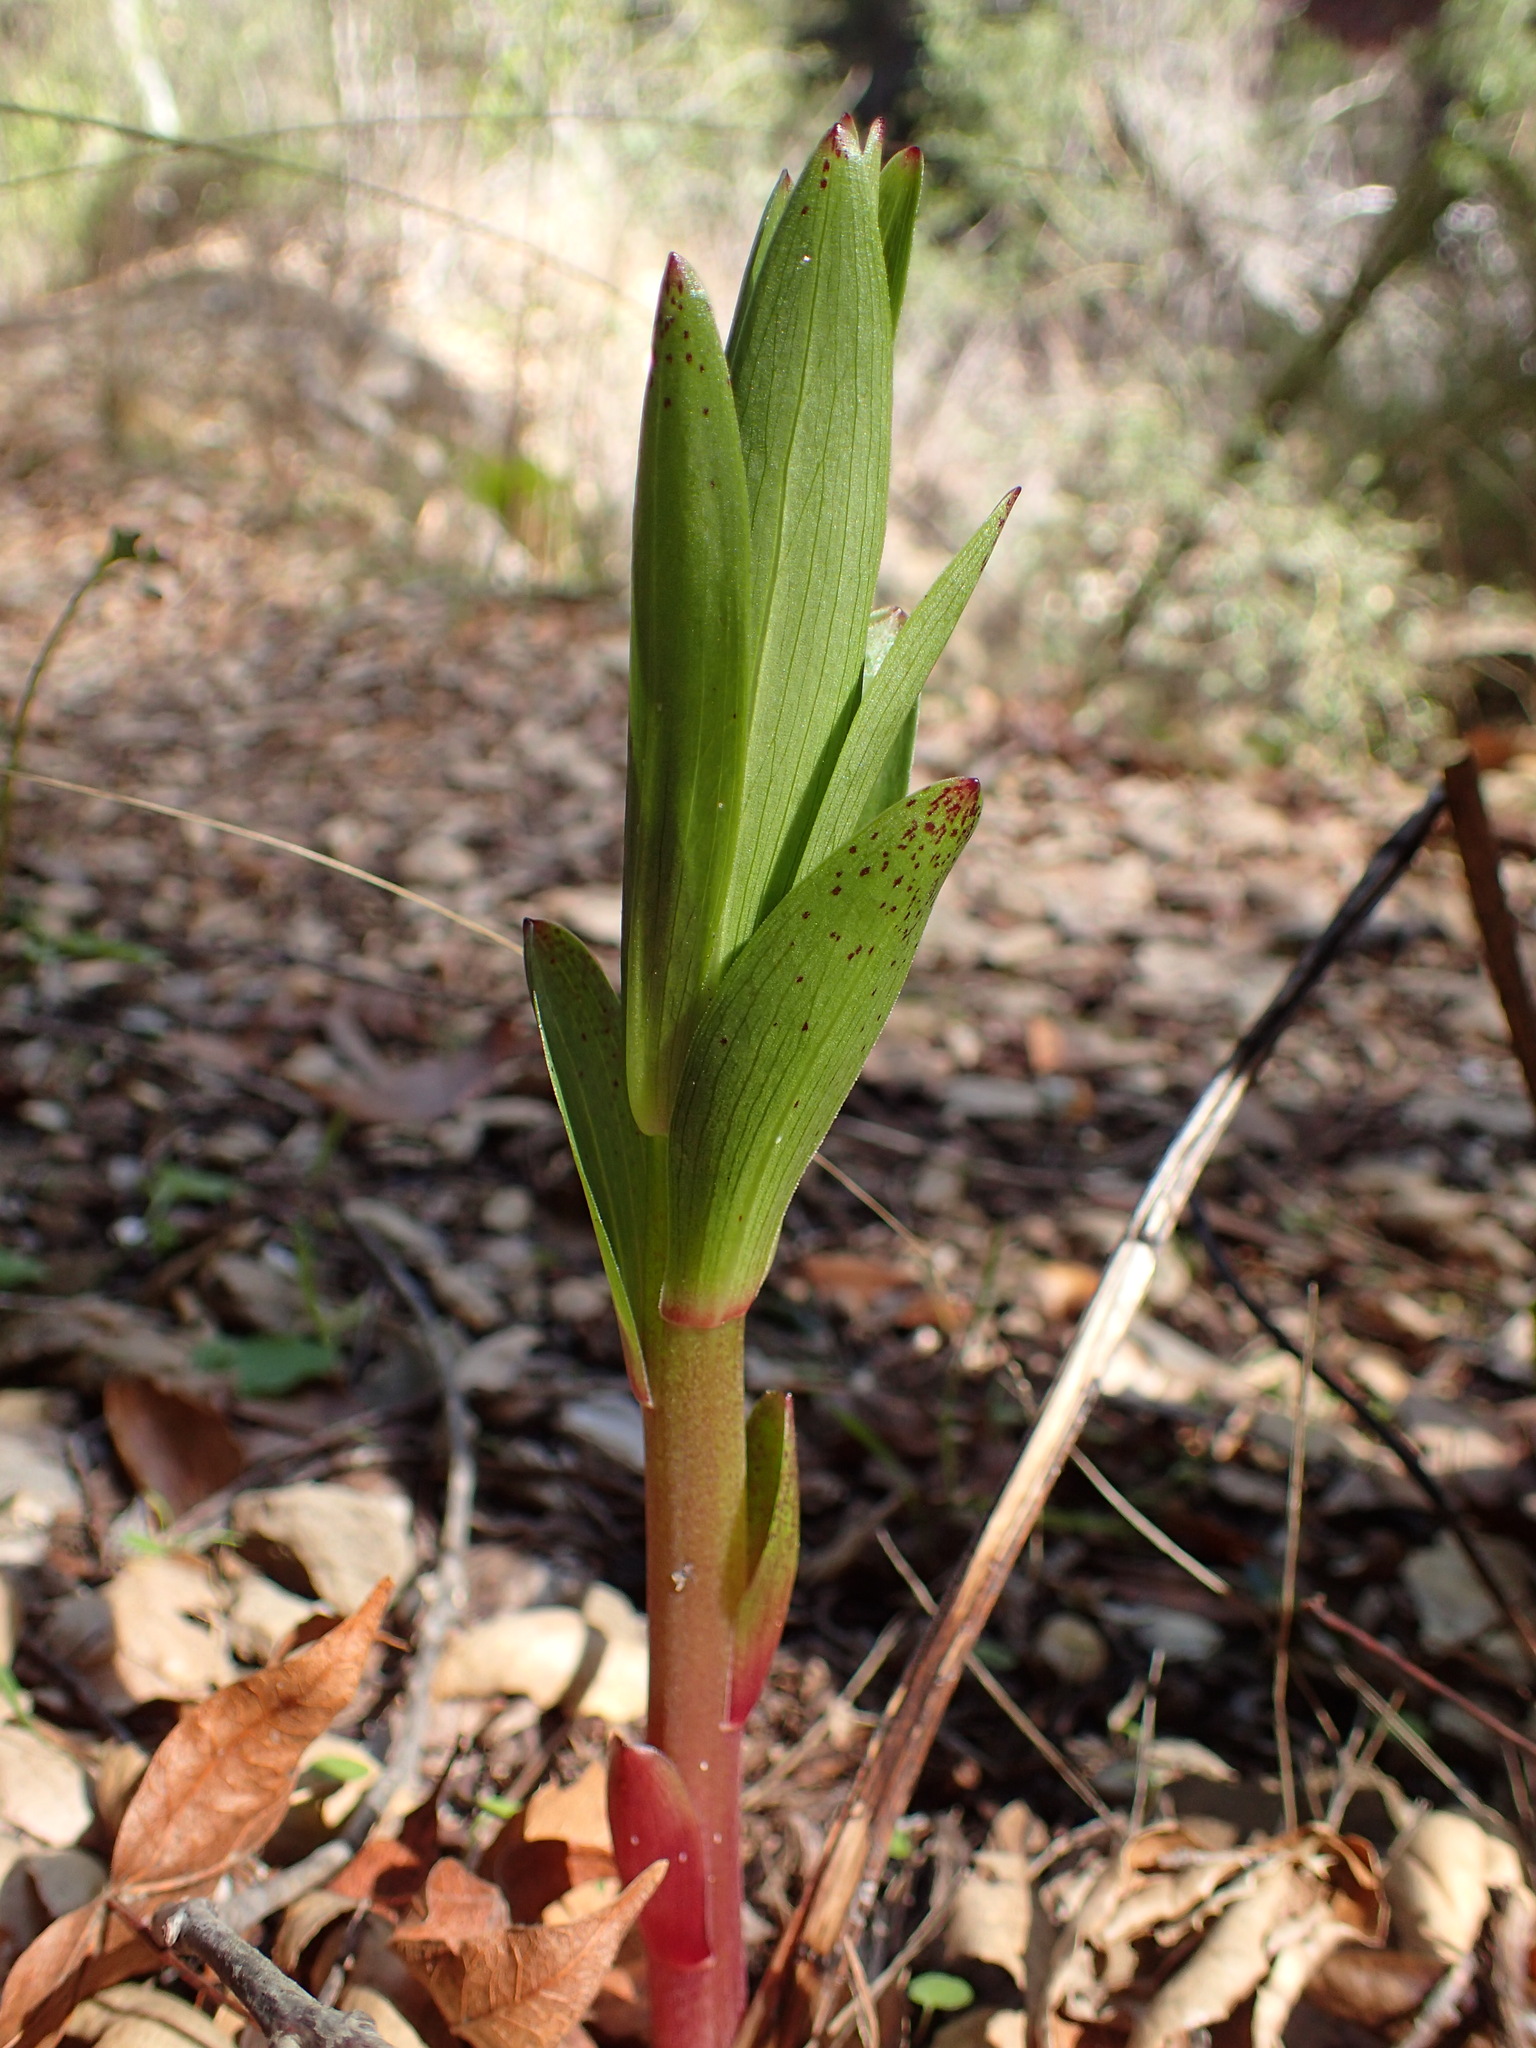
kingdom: Plantae
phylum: Tracheophyta
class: Liliopsida
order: Liliales
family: Liliaceae
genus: Lilium
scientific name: Lilium humboldtii
